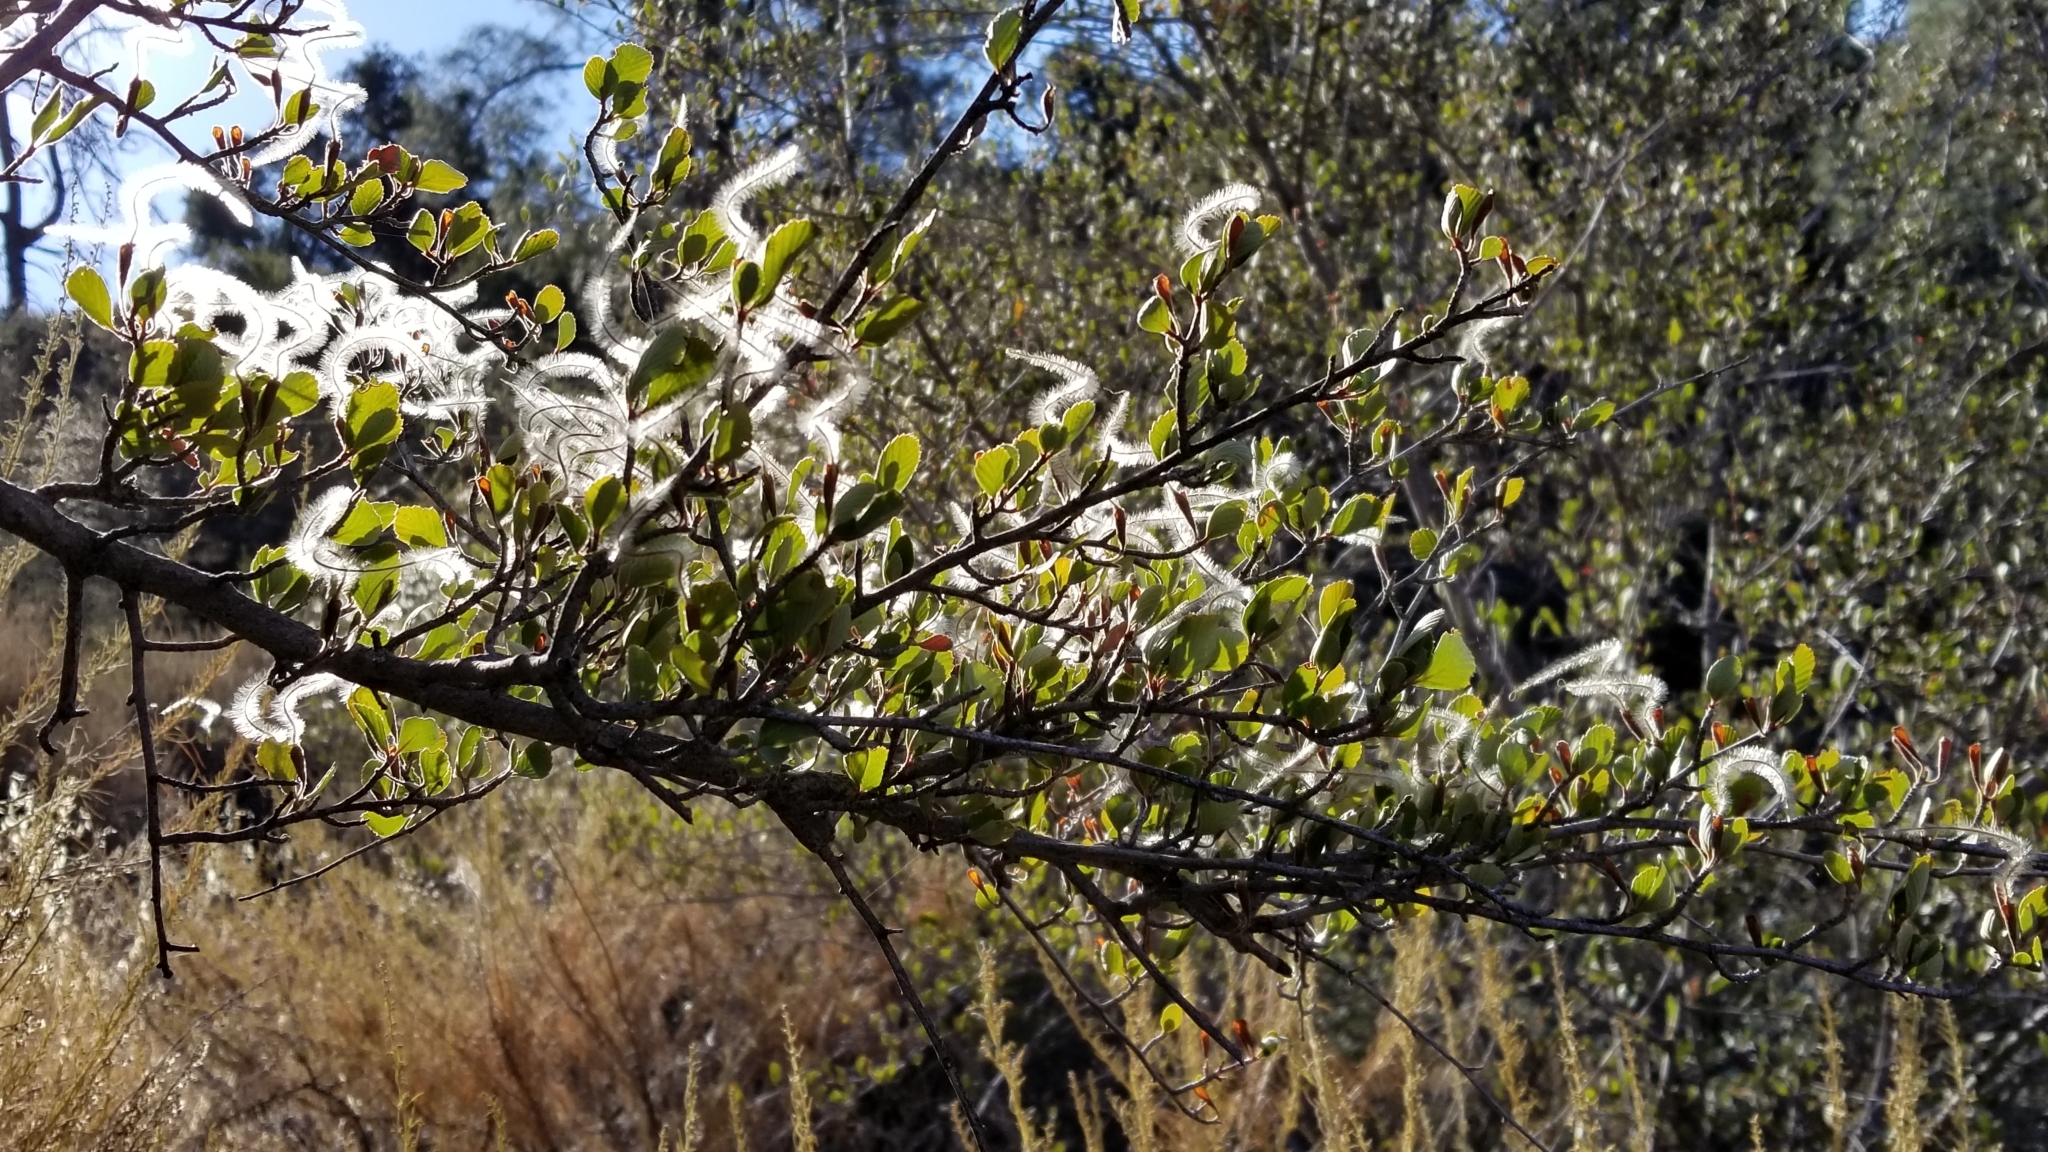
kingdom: Plantae
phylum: Tracheophyta
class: Magnoliopsida
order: Rosales
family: Rosaceae
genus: Cercocarpus
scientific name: Cercocarpus betuloides
